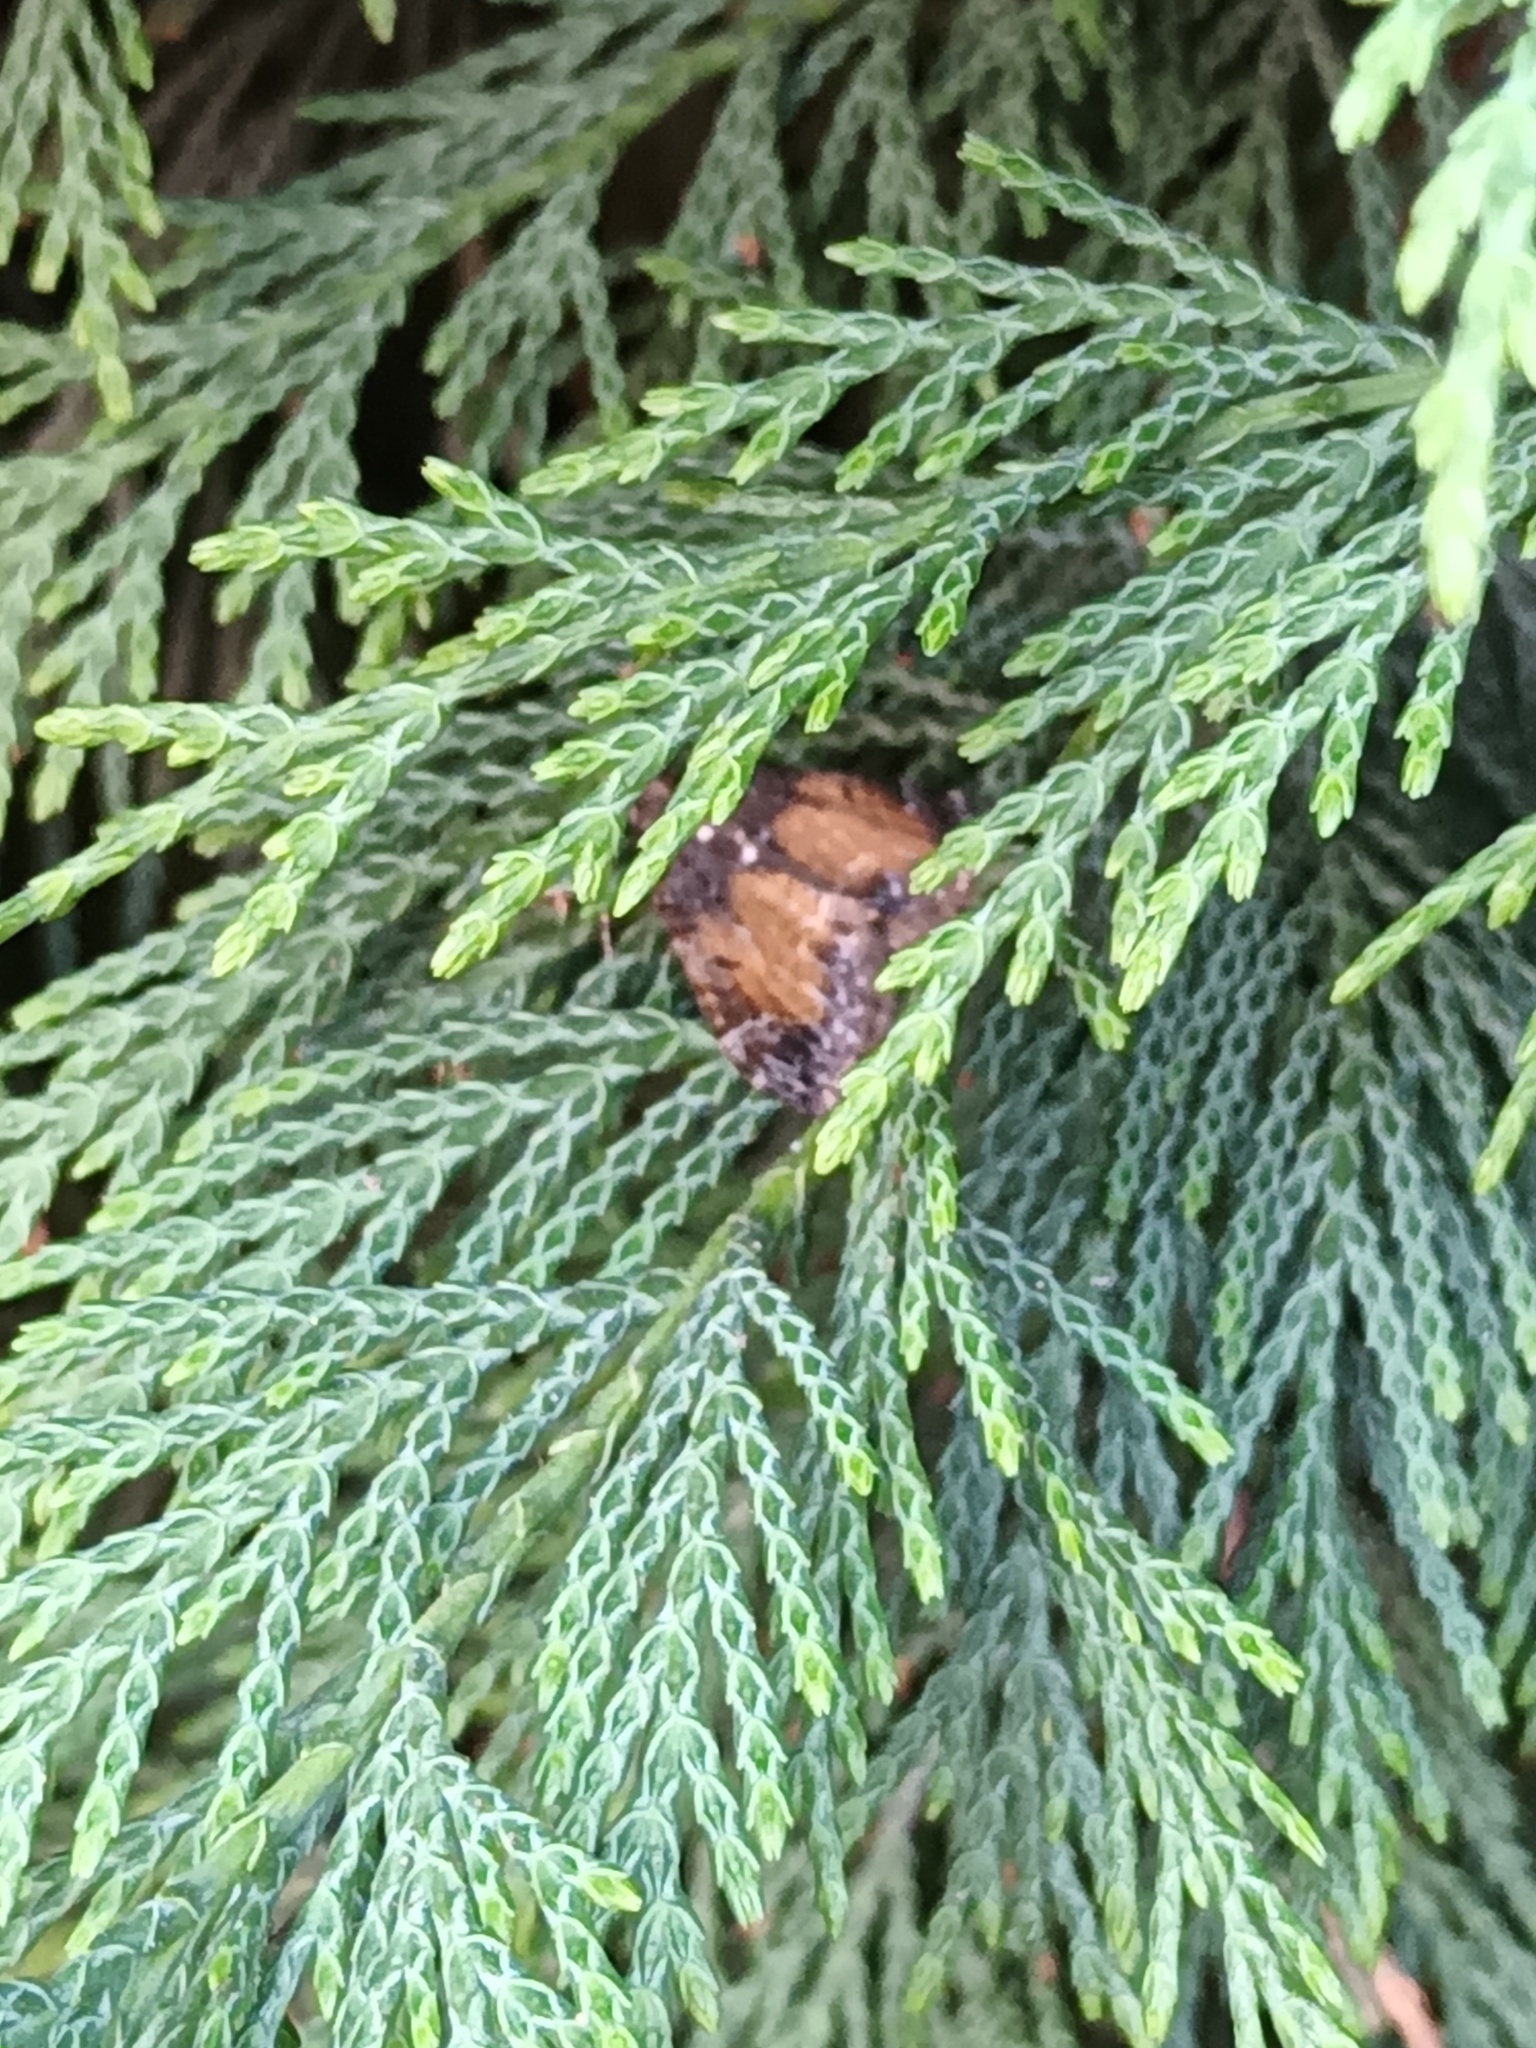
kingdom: Animalia
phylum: Arthropoda
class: Insecta
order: Lepidoptera
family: Geometridae
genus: Dysstroma
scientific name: Dysstroma truncata
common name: Common marbled carpet
